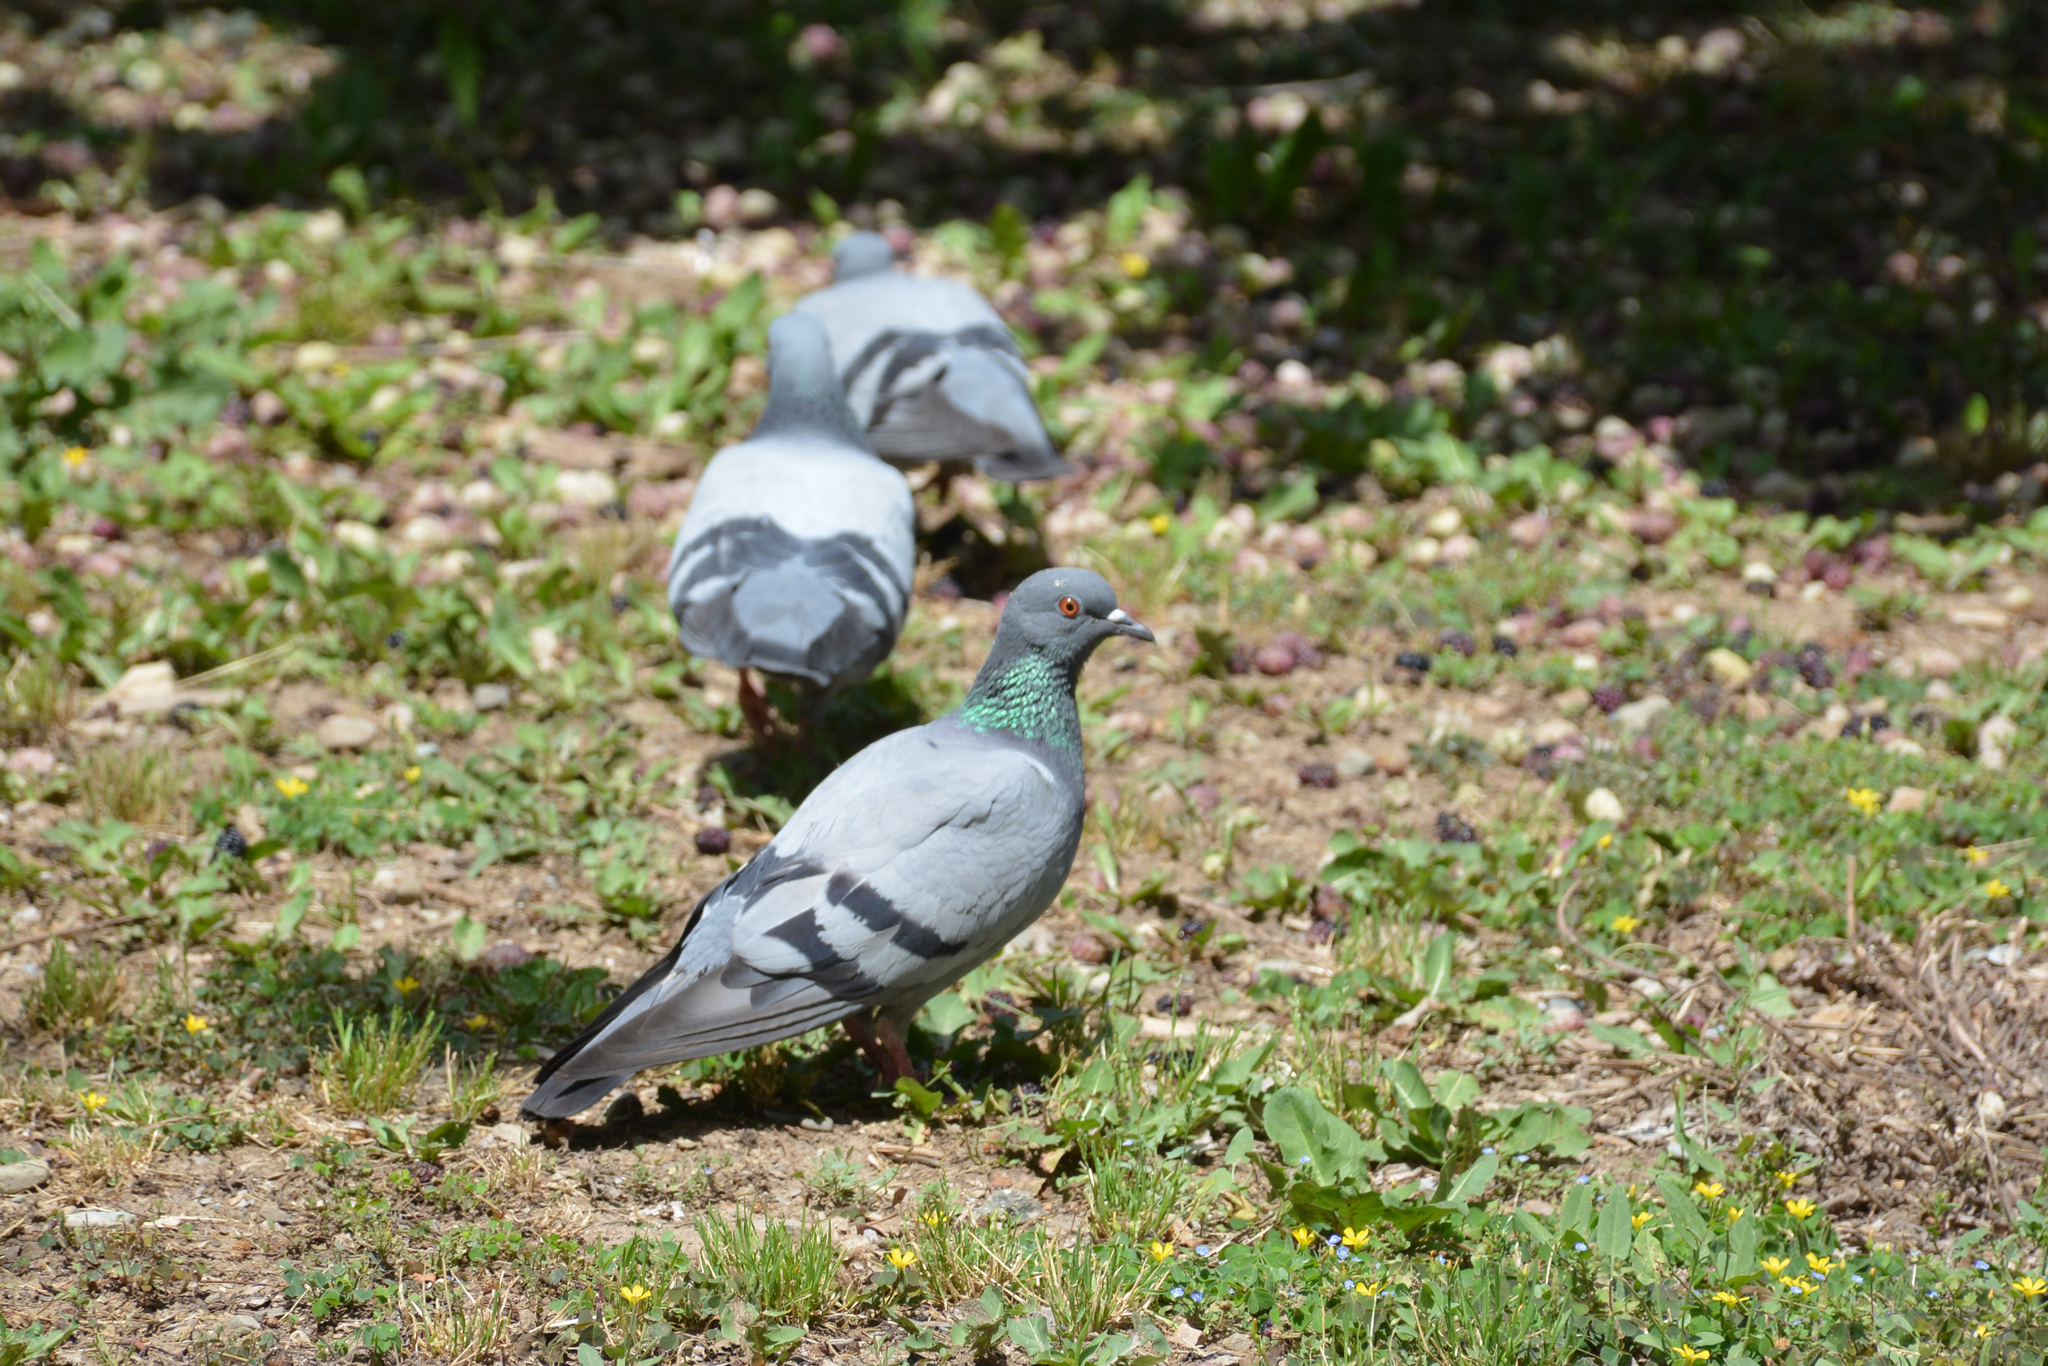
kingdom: Animalia
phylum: Chordata
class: Aves
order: Columbiformes
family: Columbidae
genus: Columba
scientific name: Columba livia
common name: Rock pigeon
